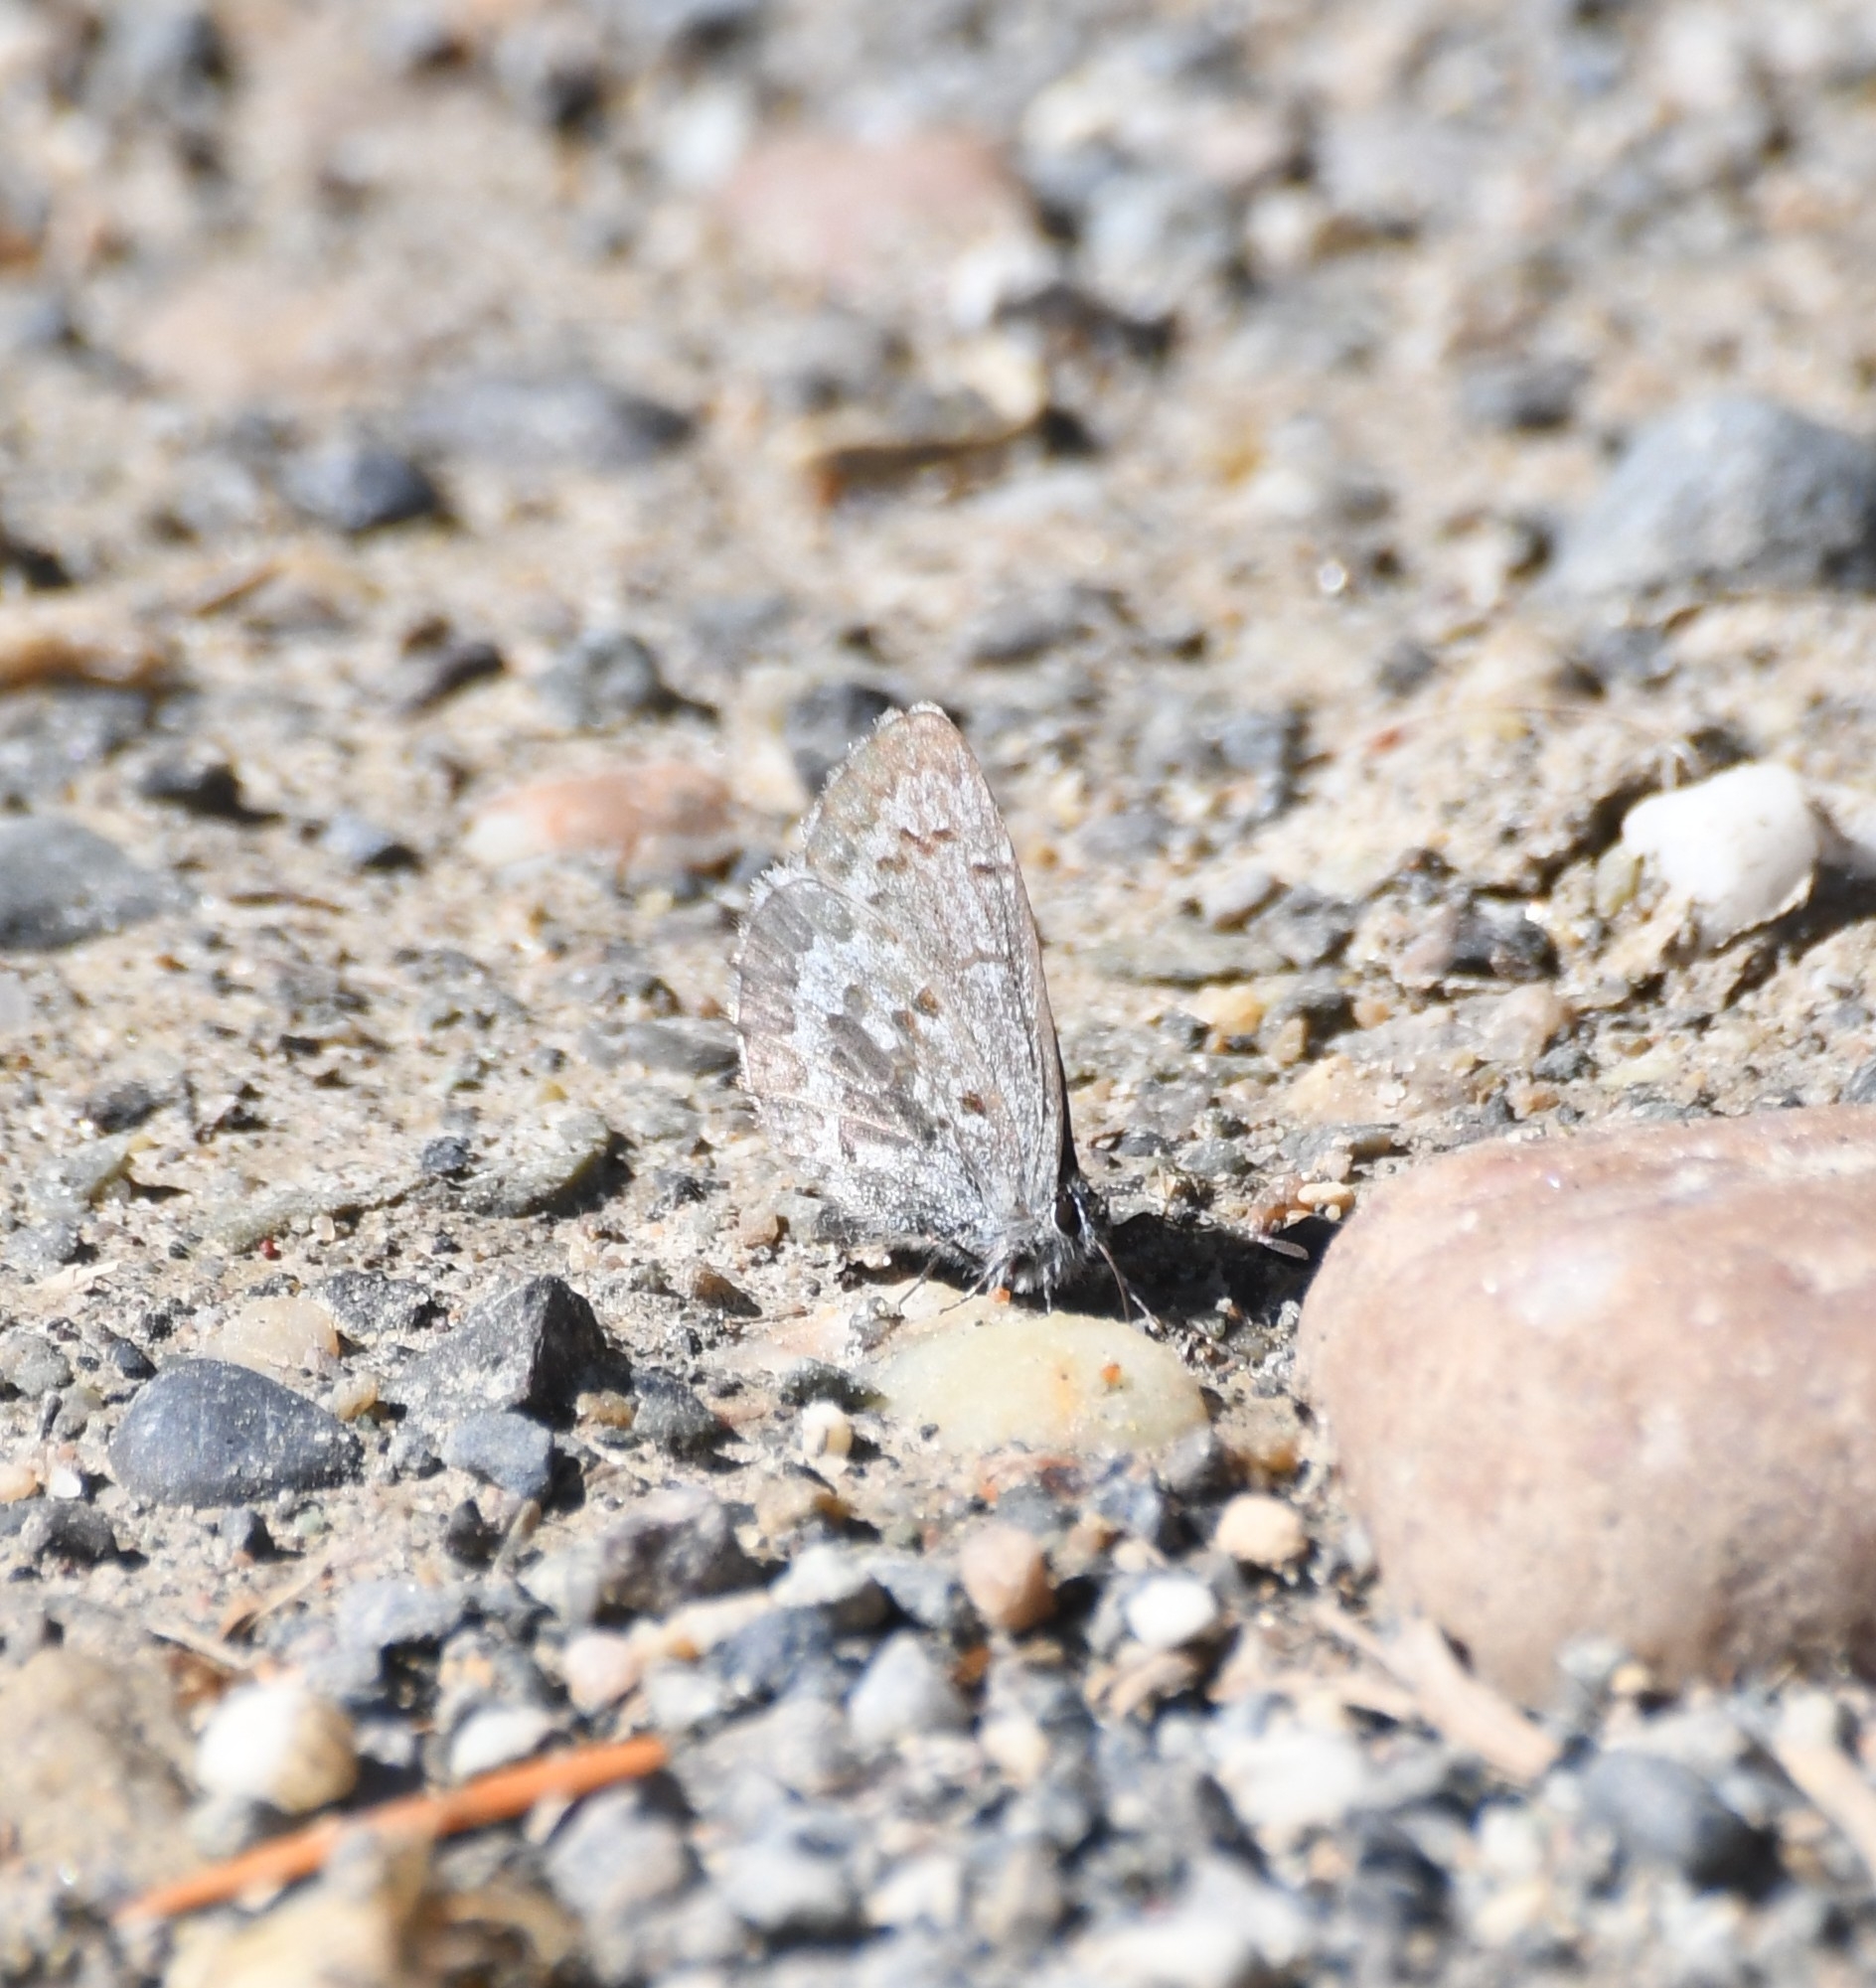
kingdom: Animalia
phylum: Arthropoda
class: Insecta
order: Lepidoptera
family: Lycaenidae
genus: Celastrina
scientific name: Celastrina lucia
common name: Lucia azure
